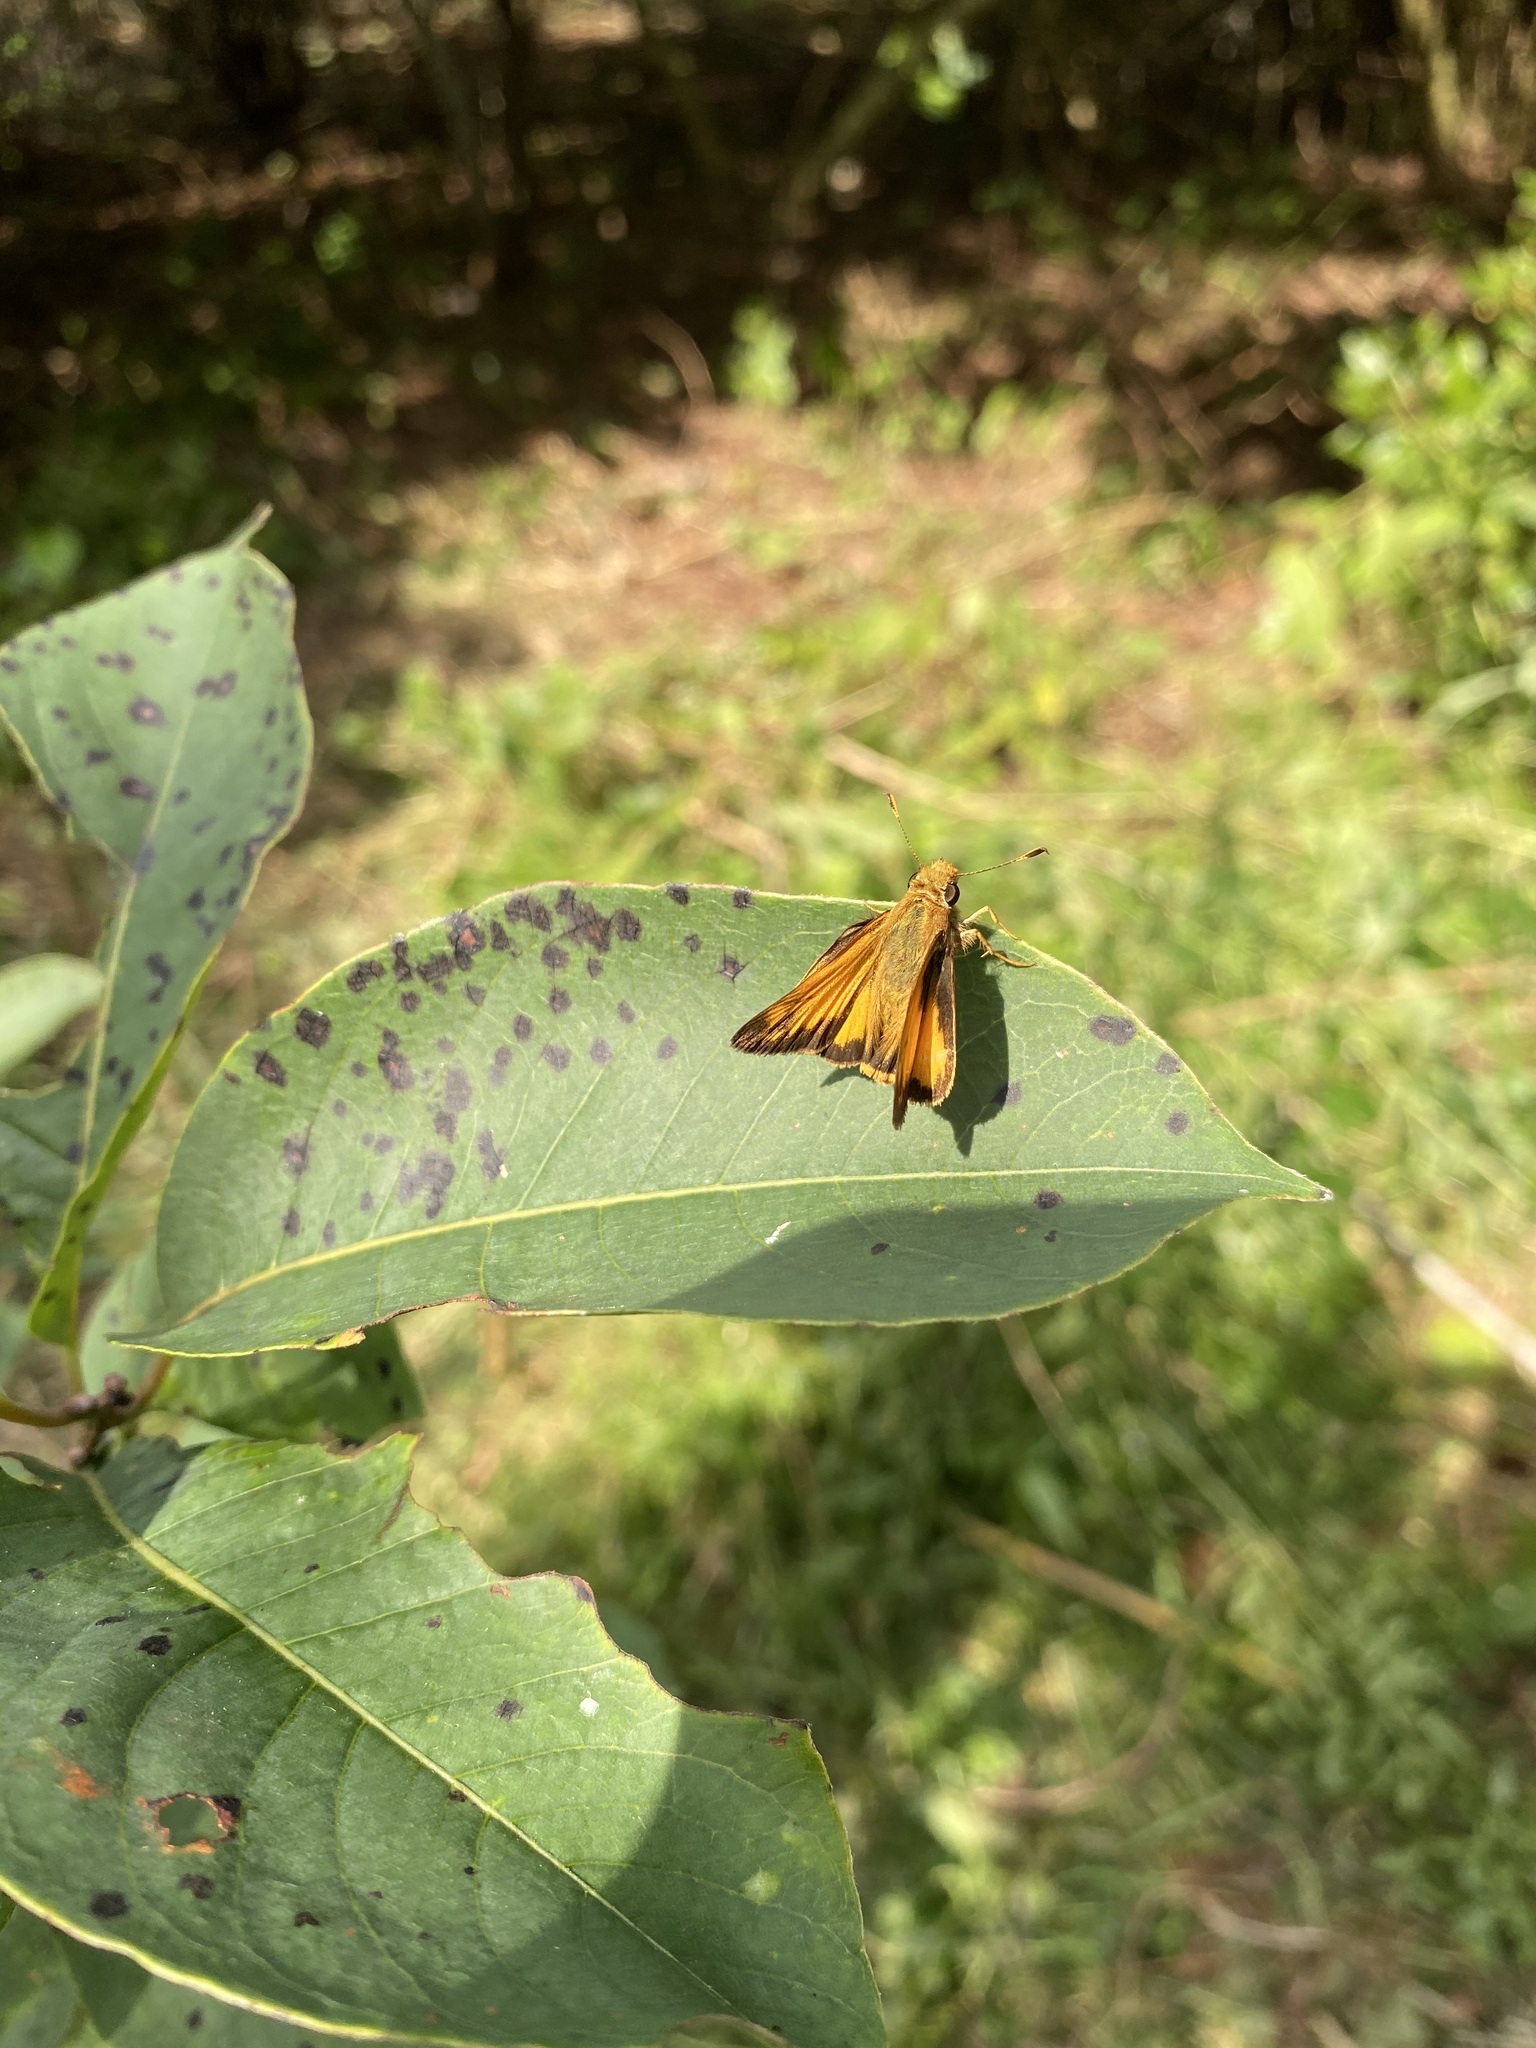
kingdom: Animalia
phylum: Arthropoda
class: Insecta
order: Lepidoptera
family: Hesperiidae
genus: Lon
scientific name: Lon zabulon
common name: Zabulon skipper
